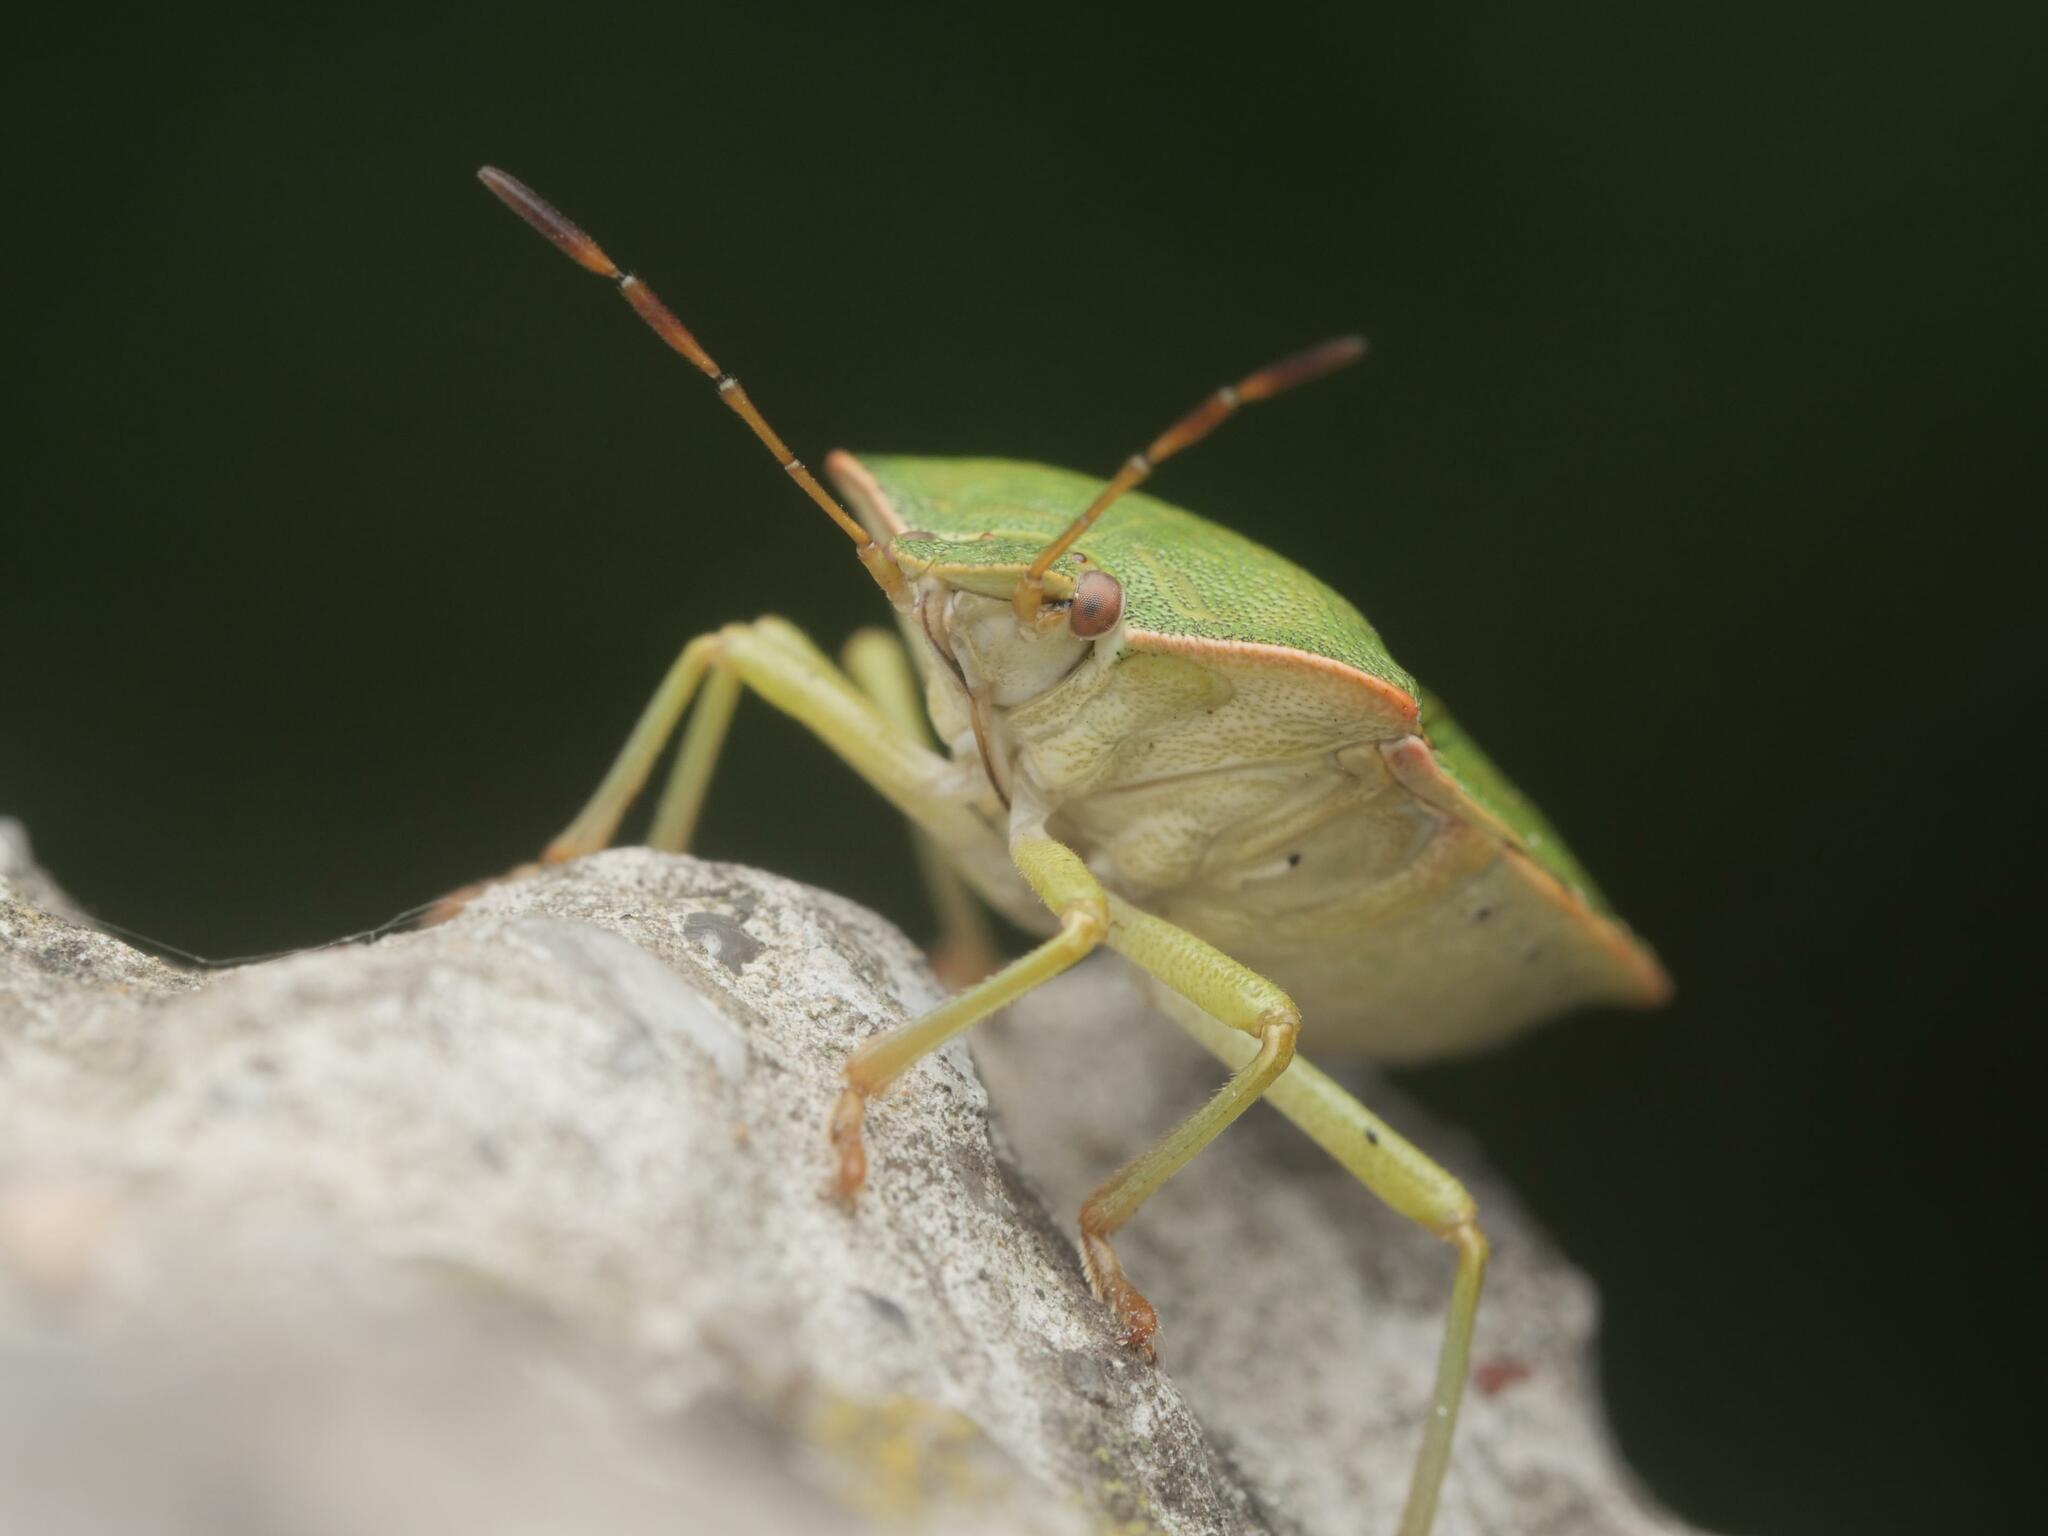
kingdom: Animalia
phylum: Arthropoda
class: Insecta
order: Hemiptera
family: Pentatomidae
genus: Palomena
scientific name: Palomena prasina
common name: Green shieldbug
